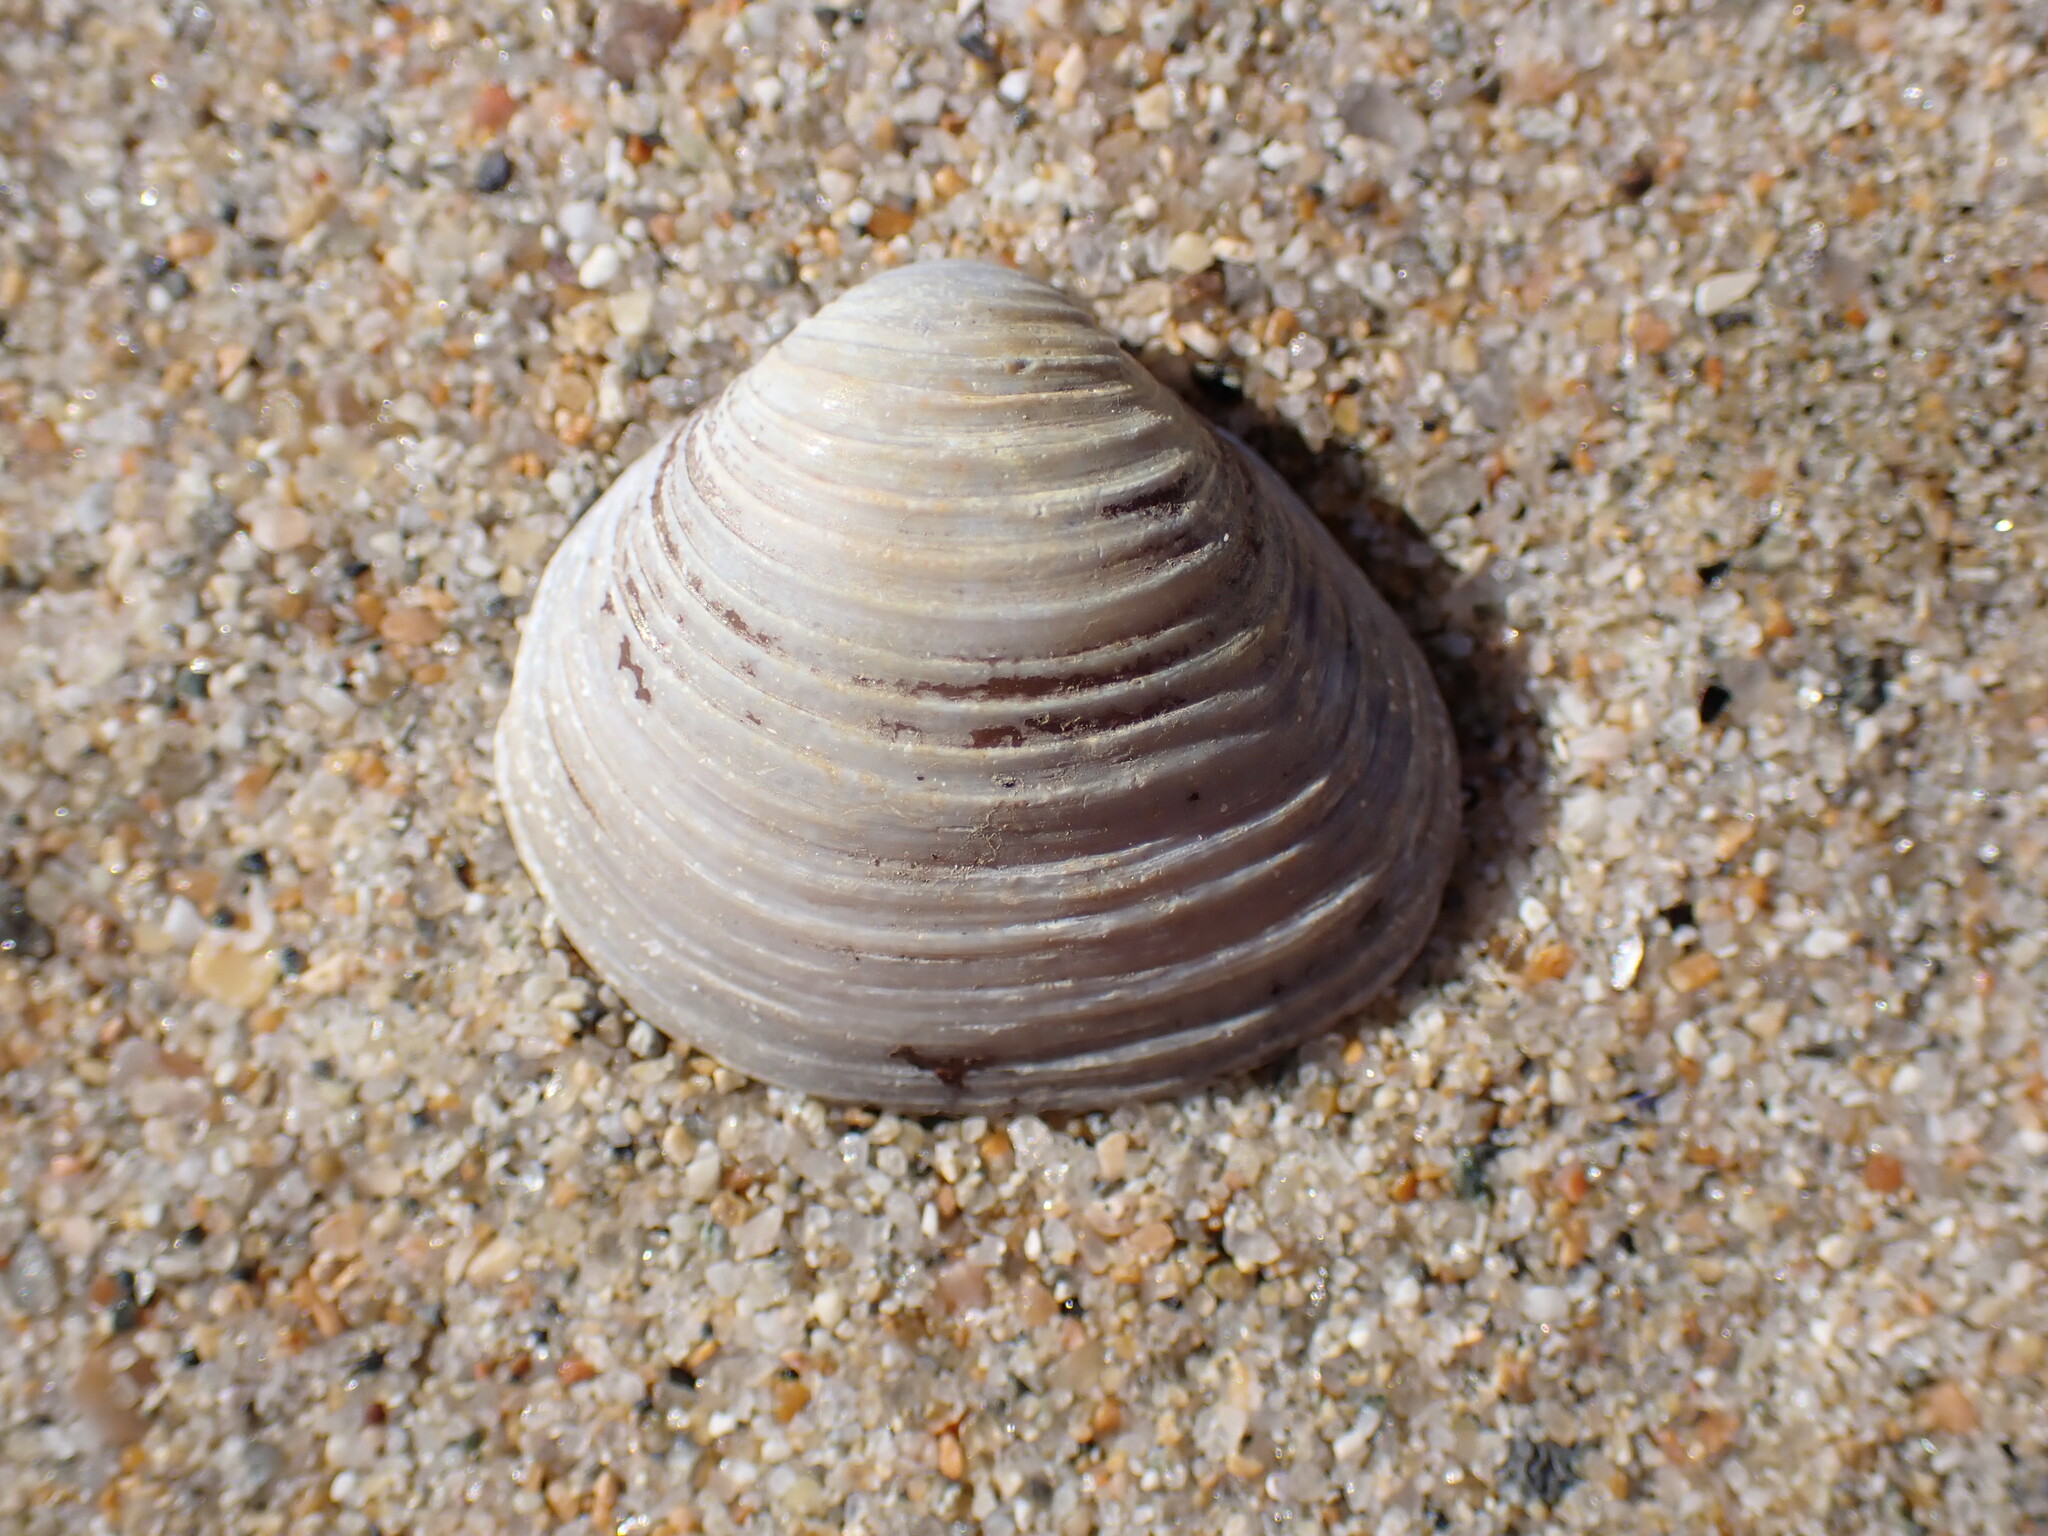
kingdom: Animalia
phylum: Mollusca
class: Bivalvia
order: Venerida
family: Cyrenidae
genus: Corbicula
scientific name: Corbicula fluminea
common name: Asian clam
